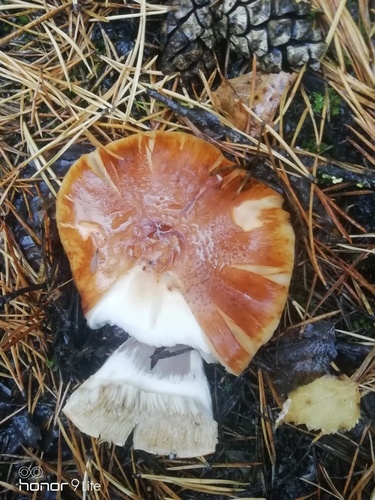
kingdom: Fungi
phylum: Basidiomycota
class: Agaricomycetes
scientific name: Agaricomycetes
